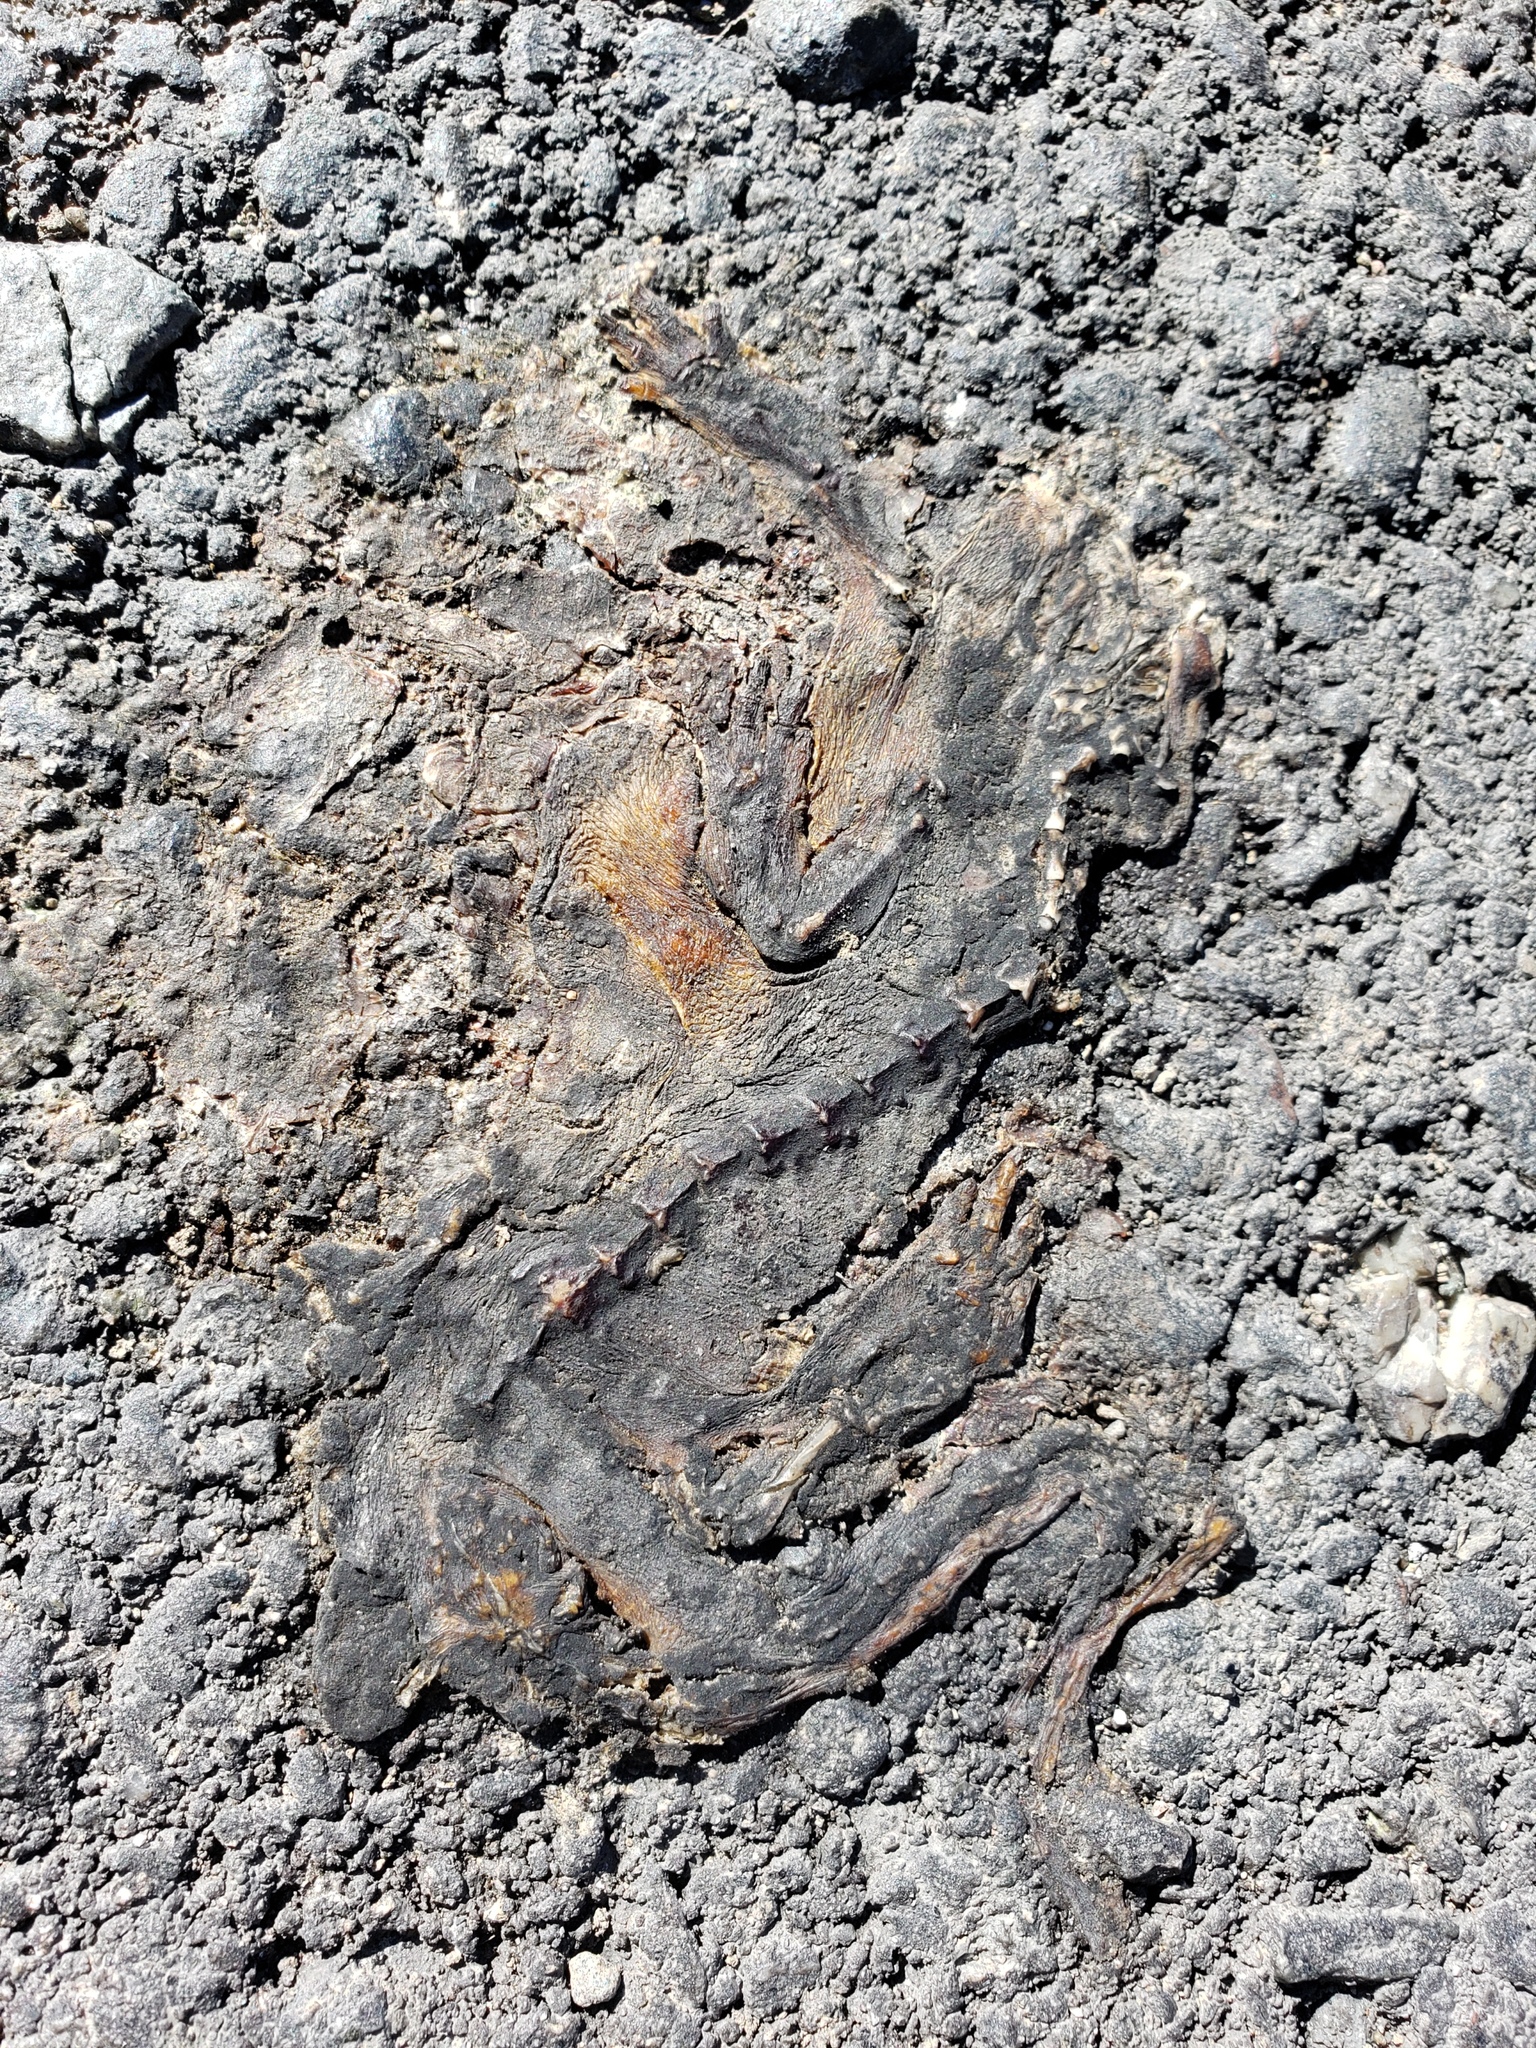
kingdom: Animalia
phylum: Chordata
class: Amphibia
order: Caudata
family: Salamandridae
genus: Taricha
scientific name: Taricha
